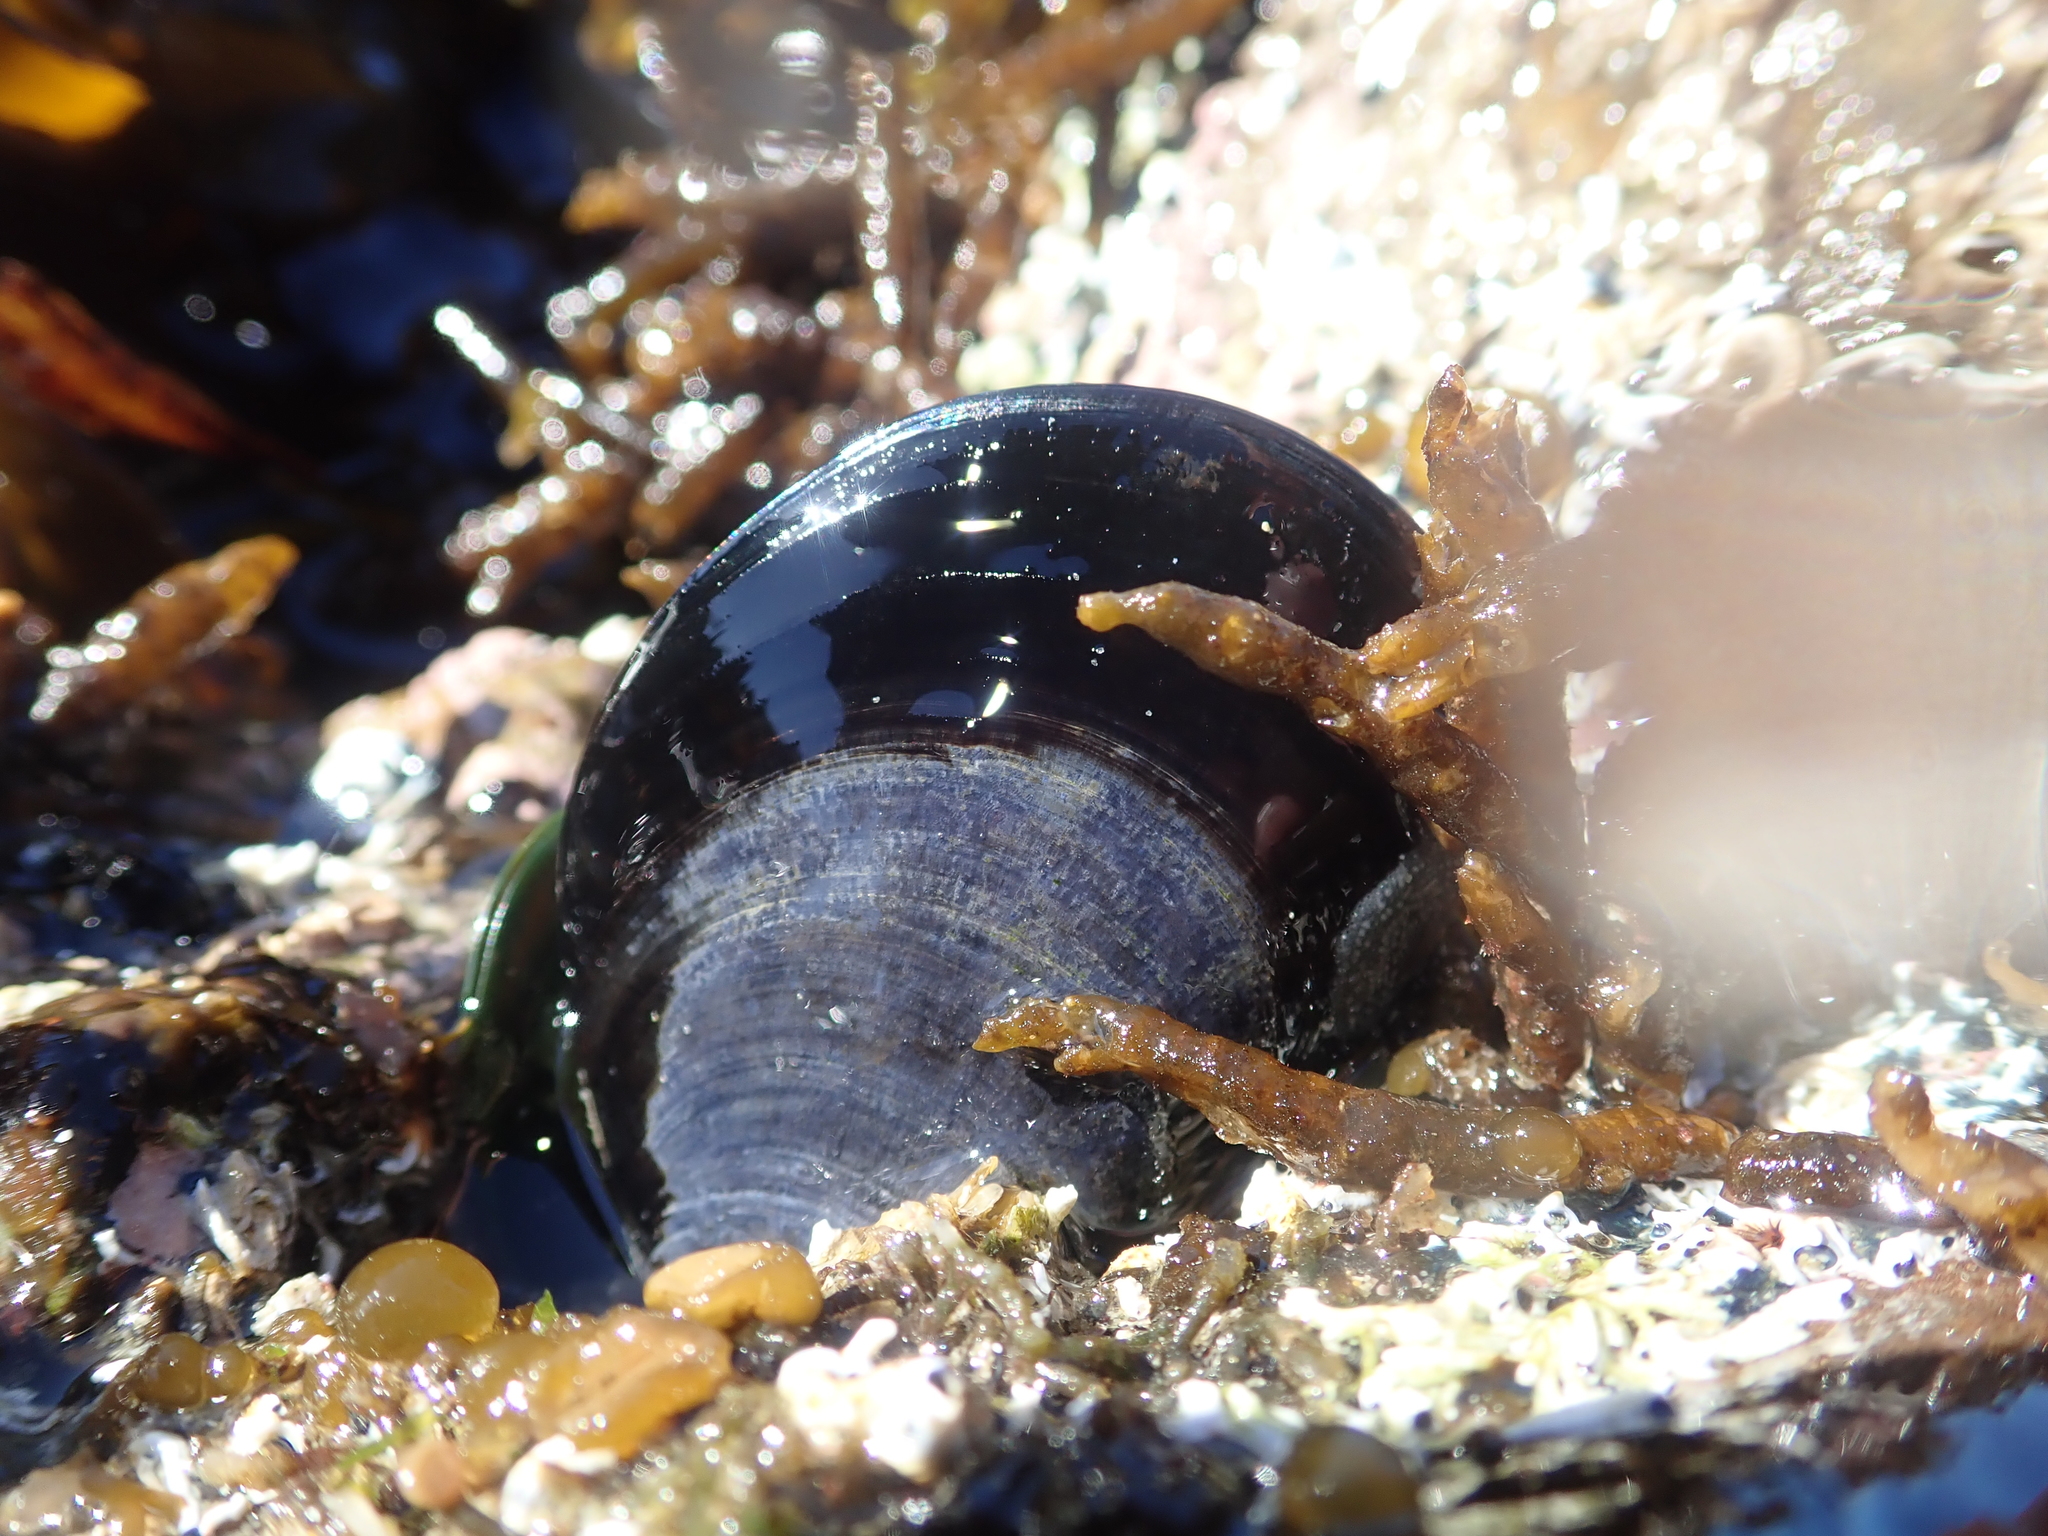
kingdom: Animalia
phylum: Mollusca
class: Bivalvia
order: Mytilida
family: Mytilidae
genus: Mytilus
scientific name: Mytilus planulatus
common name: Australian mussel
